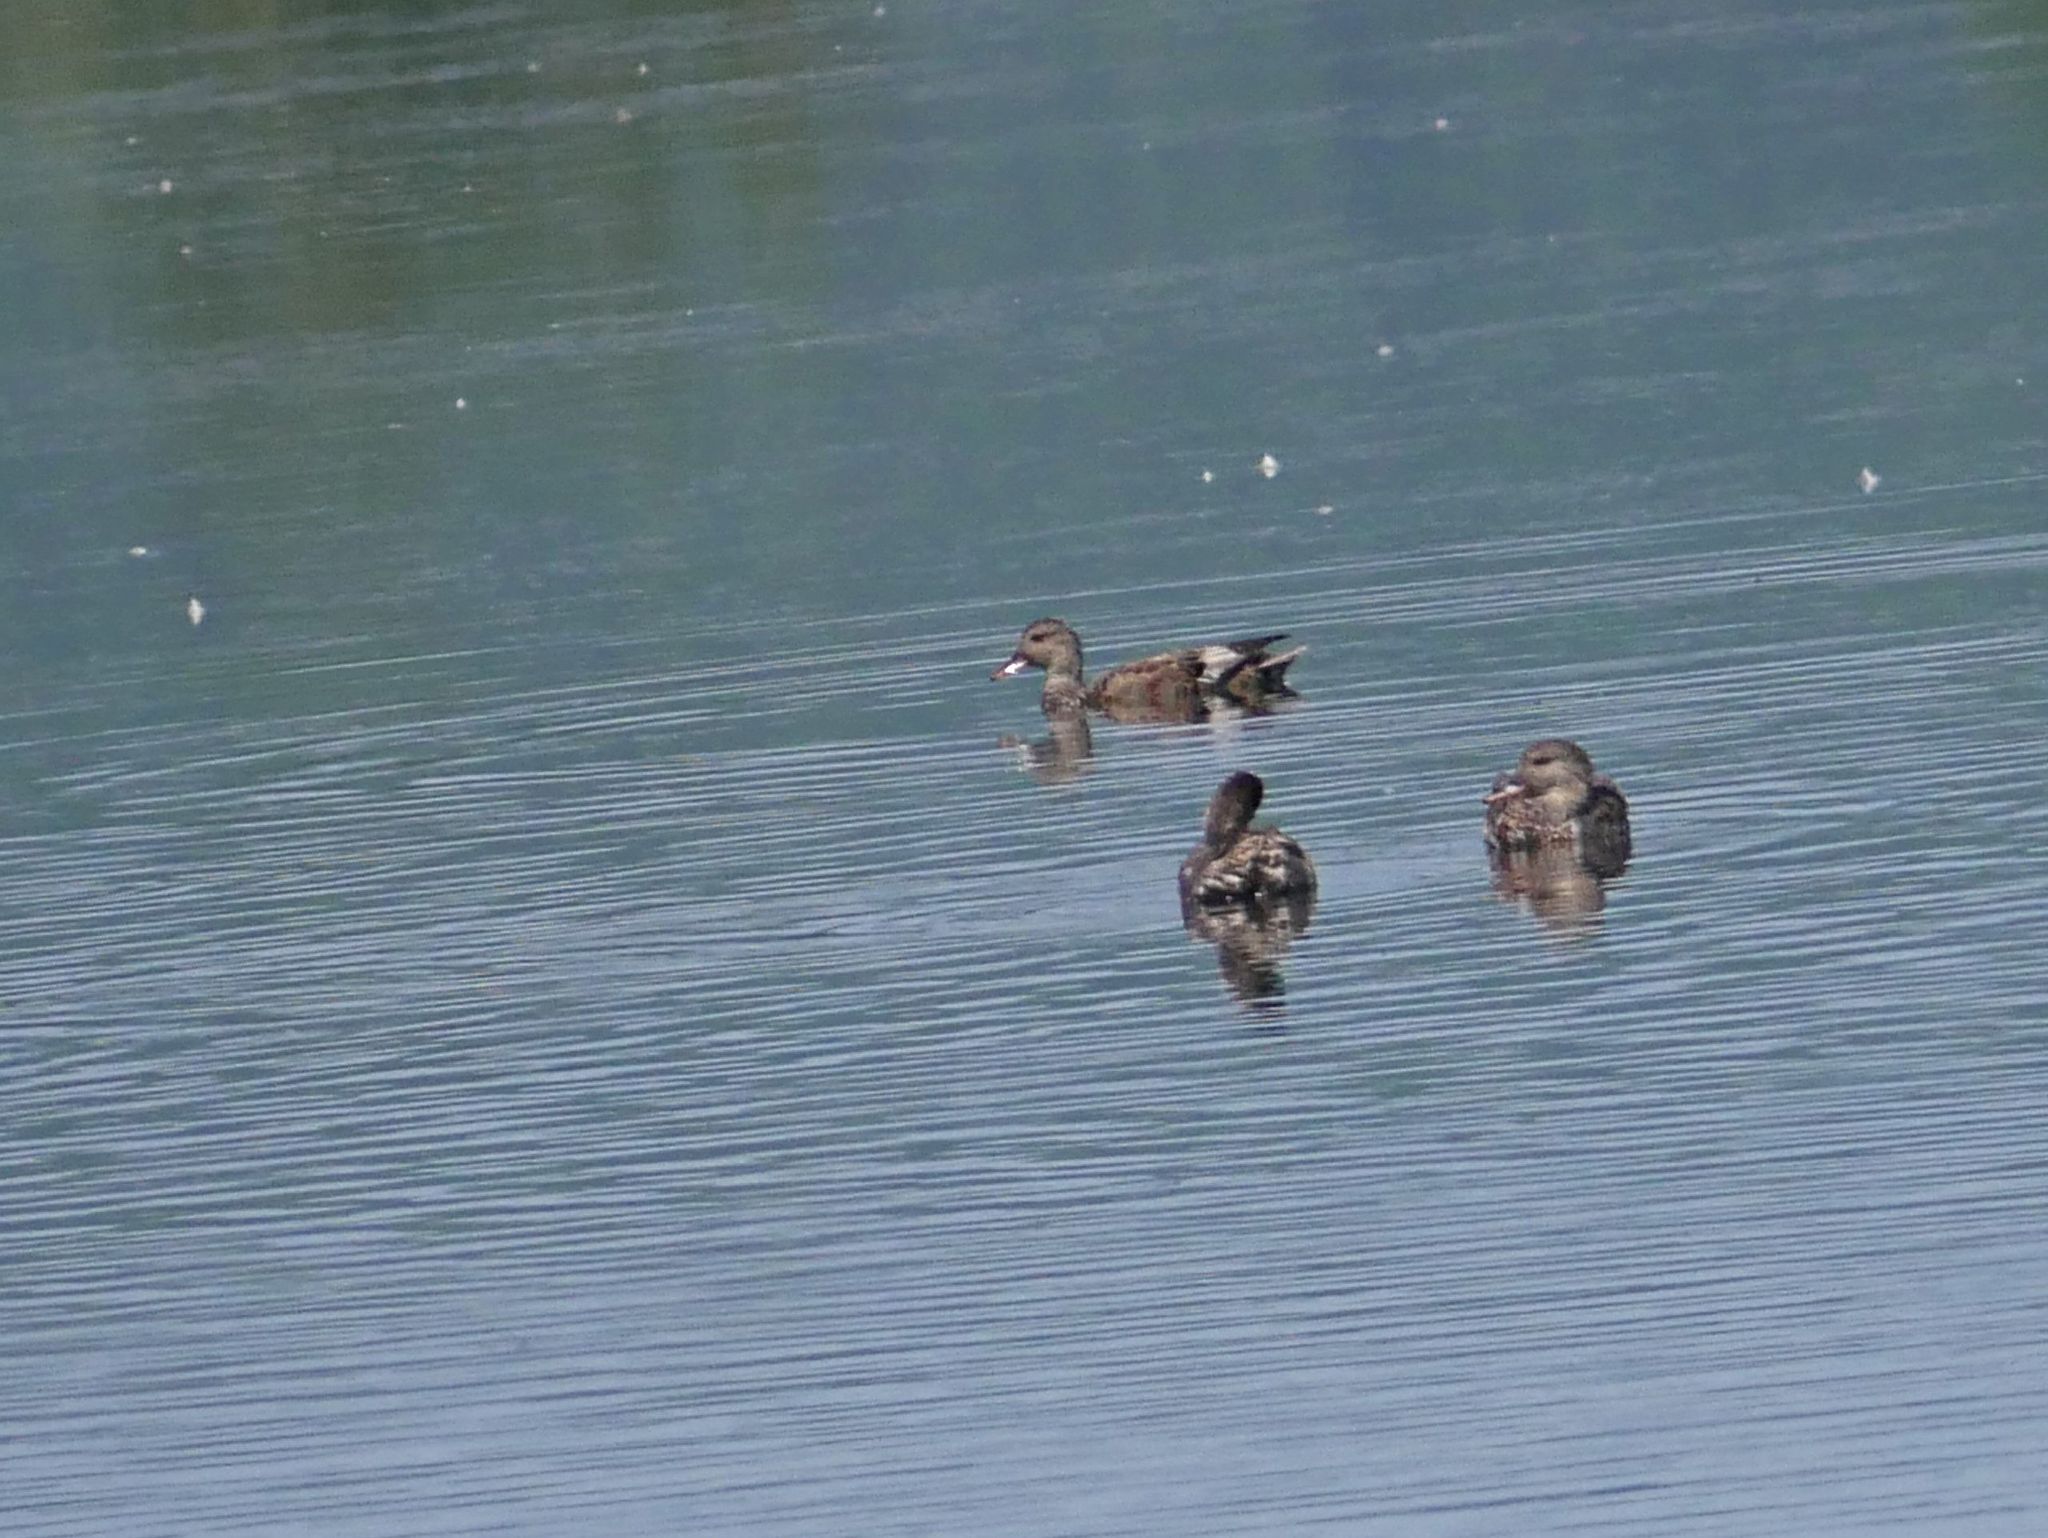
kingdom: Animalia
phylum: Chordata
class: Aves
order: Anseriformes
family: Anatidae
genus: Mareca
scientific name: Mareca strepera
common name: Gadwall
